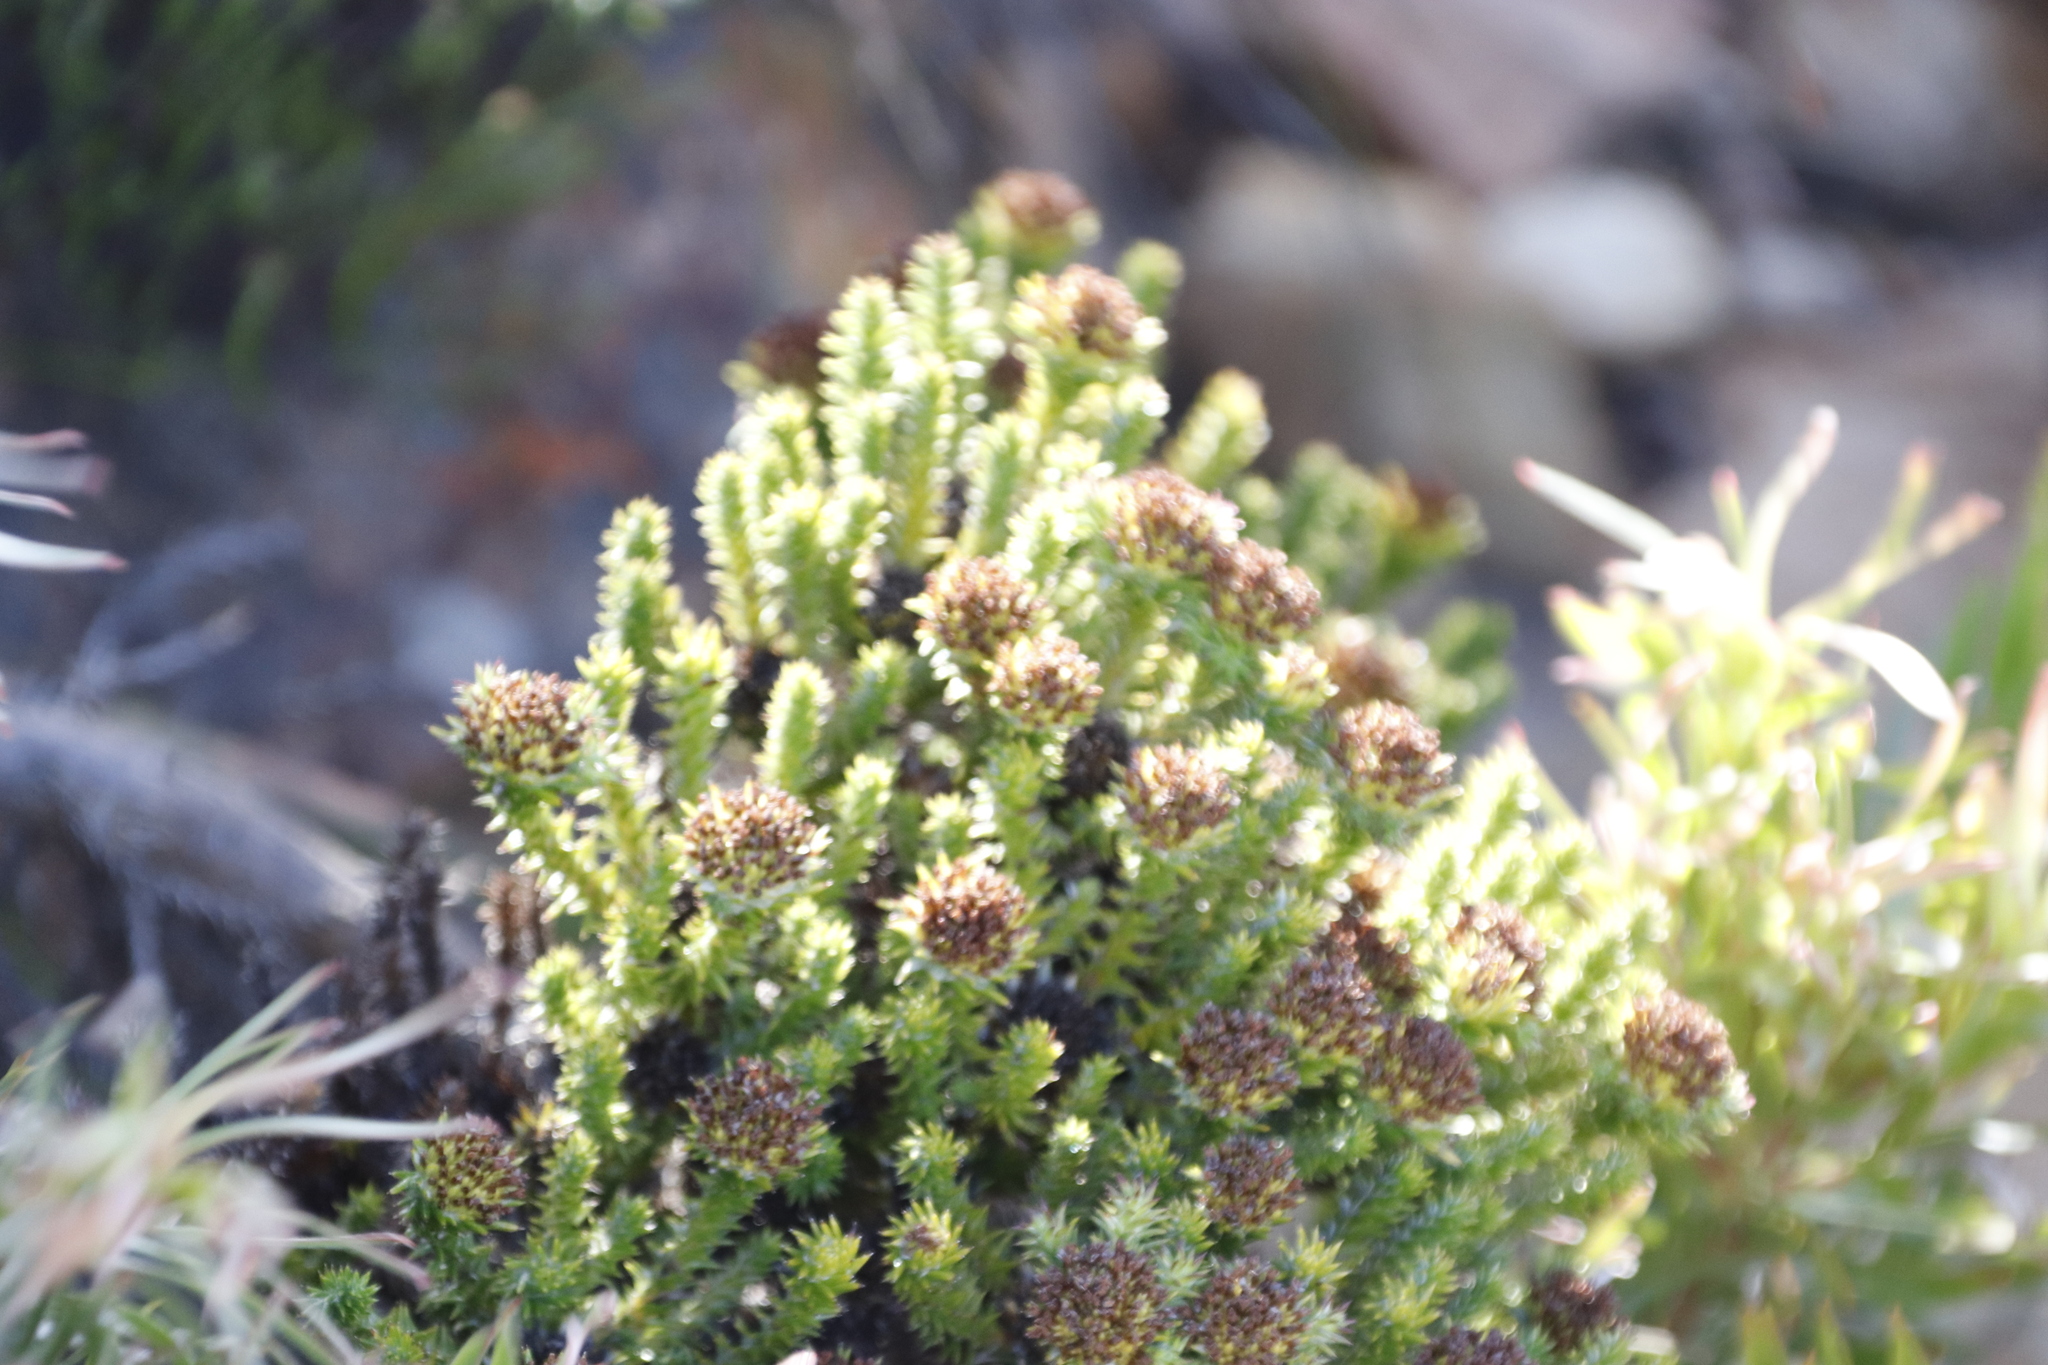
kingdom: Plantae
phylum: Tracheophyta
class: Magnoliopsida
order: Asterales
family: Asteraceae
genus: Stoebe
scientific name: Stoebe aethiopica
